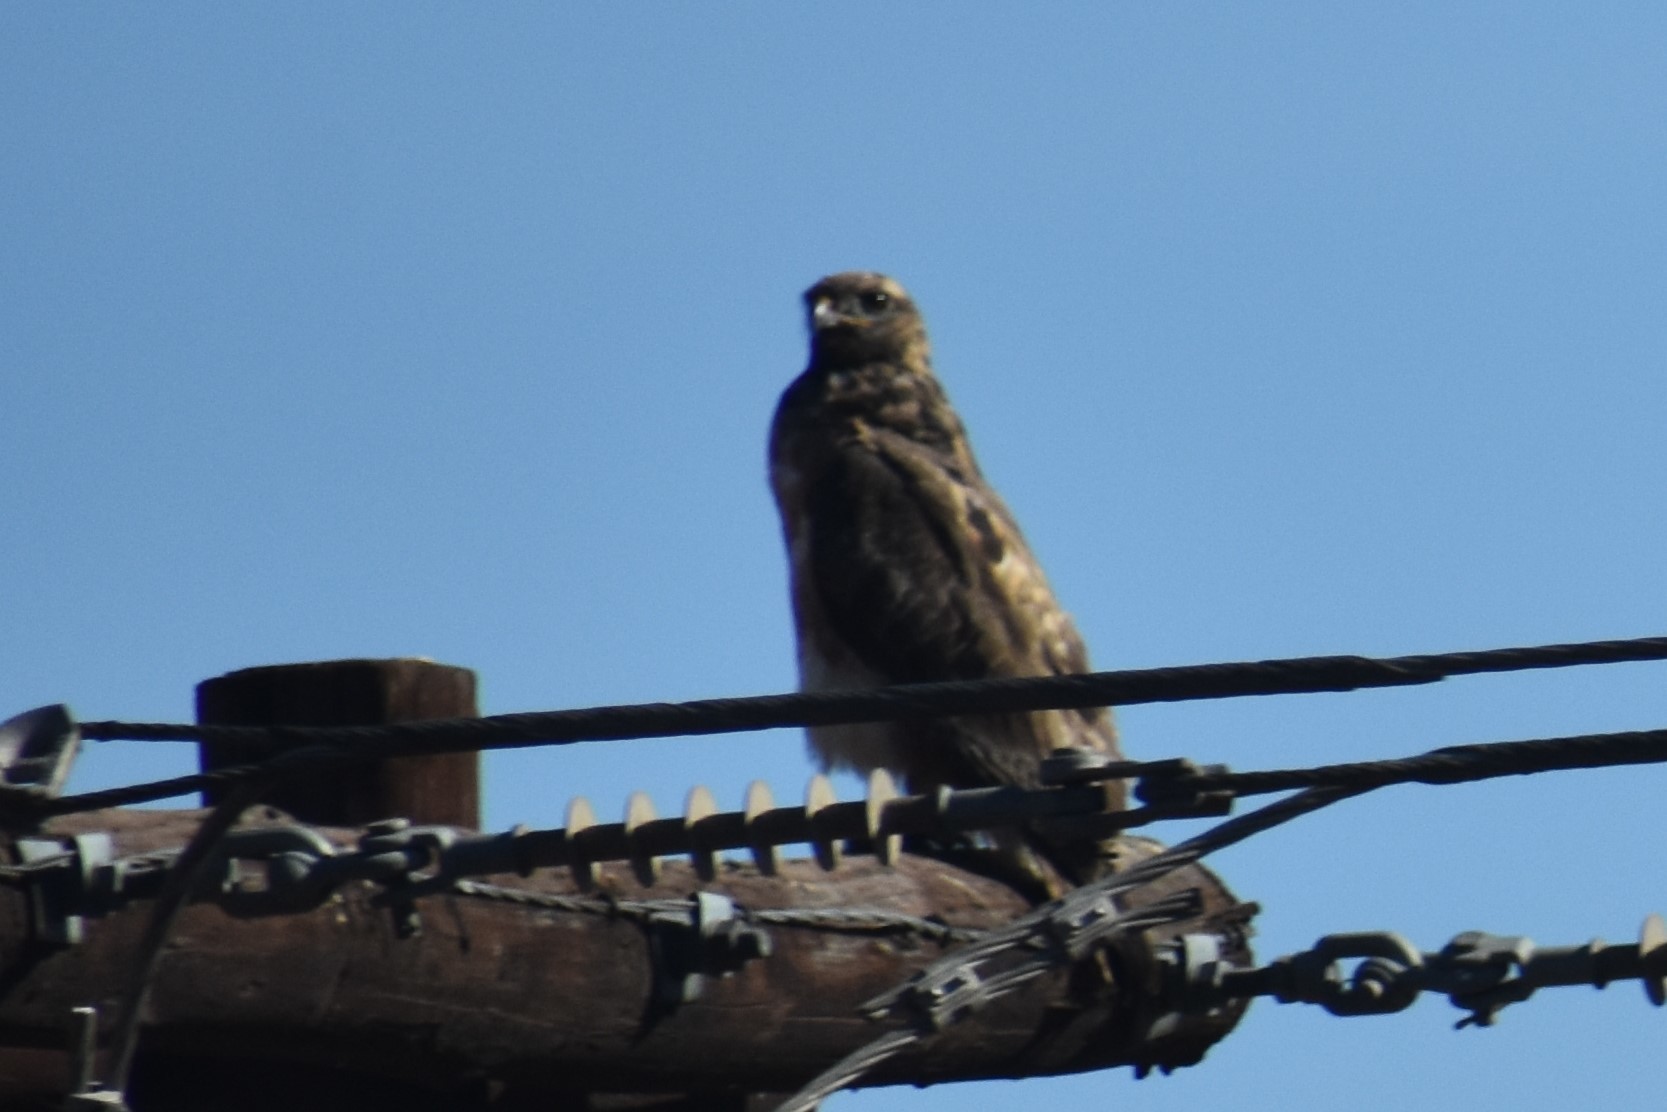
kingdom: Animalia
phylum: Chordata
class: Aves
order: Accipitriformes
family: Accipitridae
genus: Buteo
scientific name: Buteo trizonatus
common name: Forest buzzard
